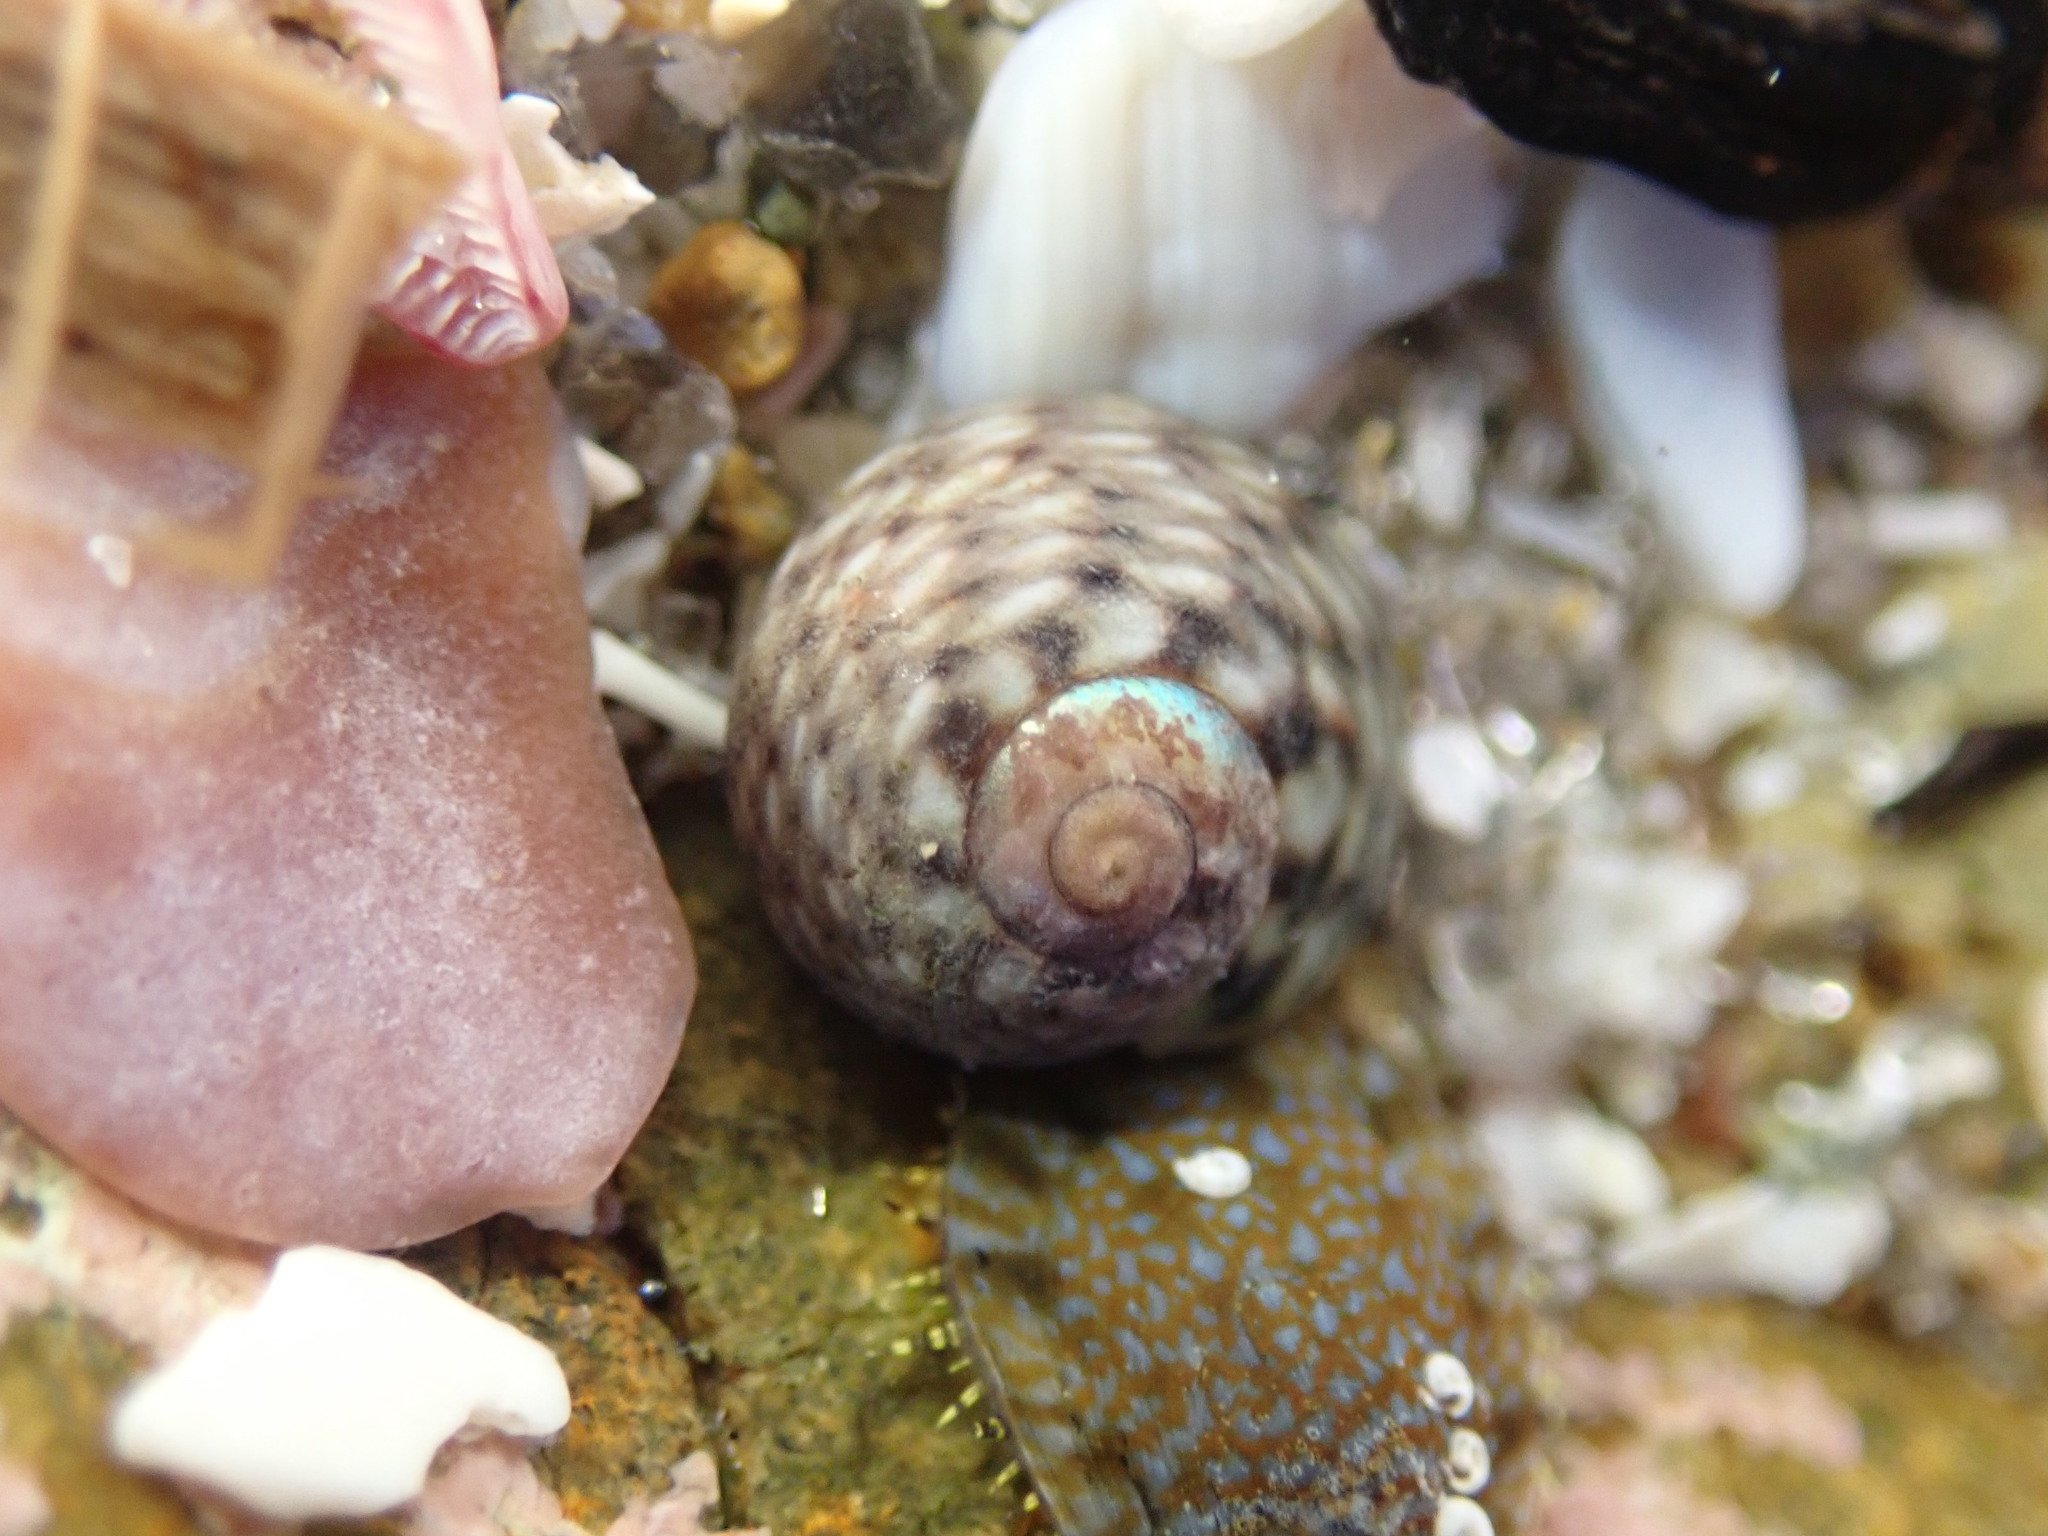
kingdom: Animalia
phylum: Mollusca
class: Gastropoda
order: Trochida
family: Trochidae
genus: Diloma
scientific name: Diloma coracinum
